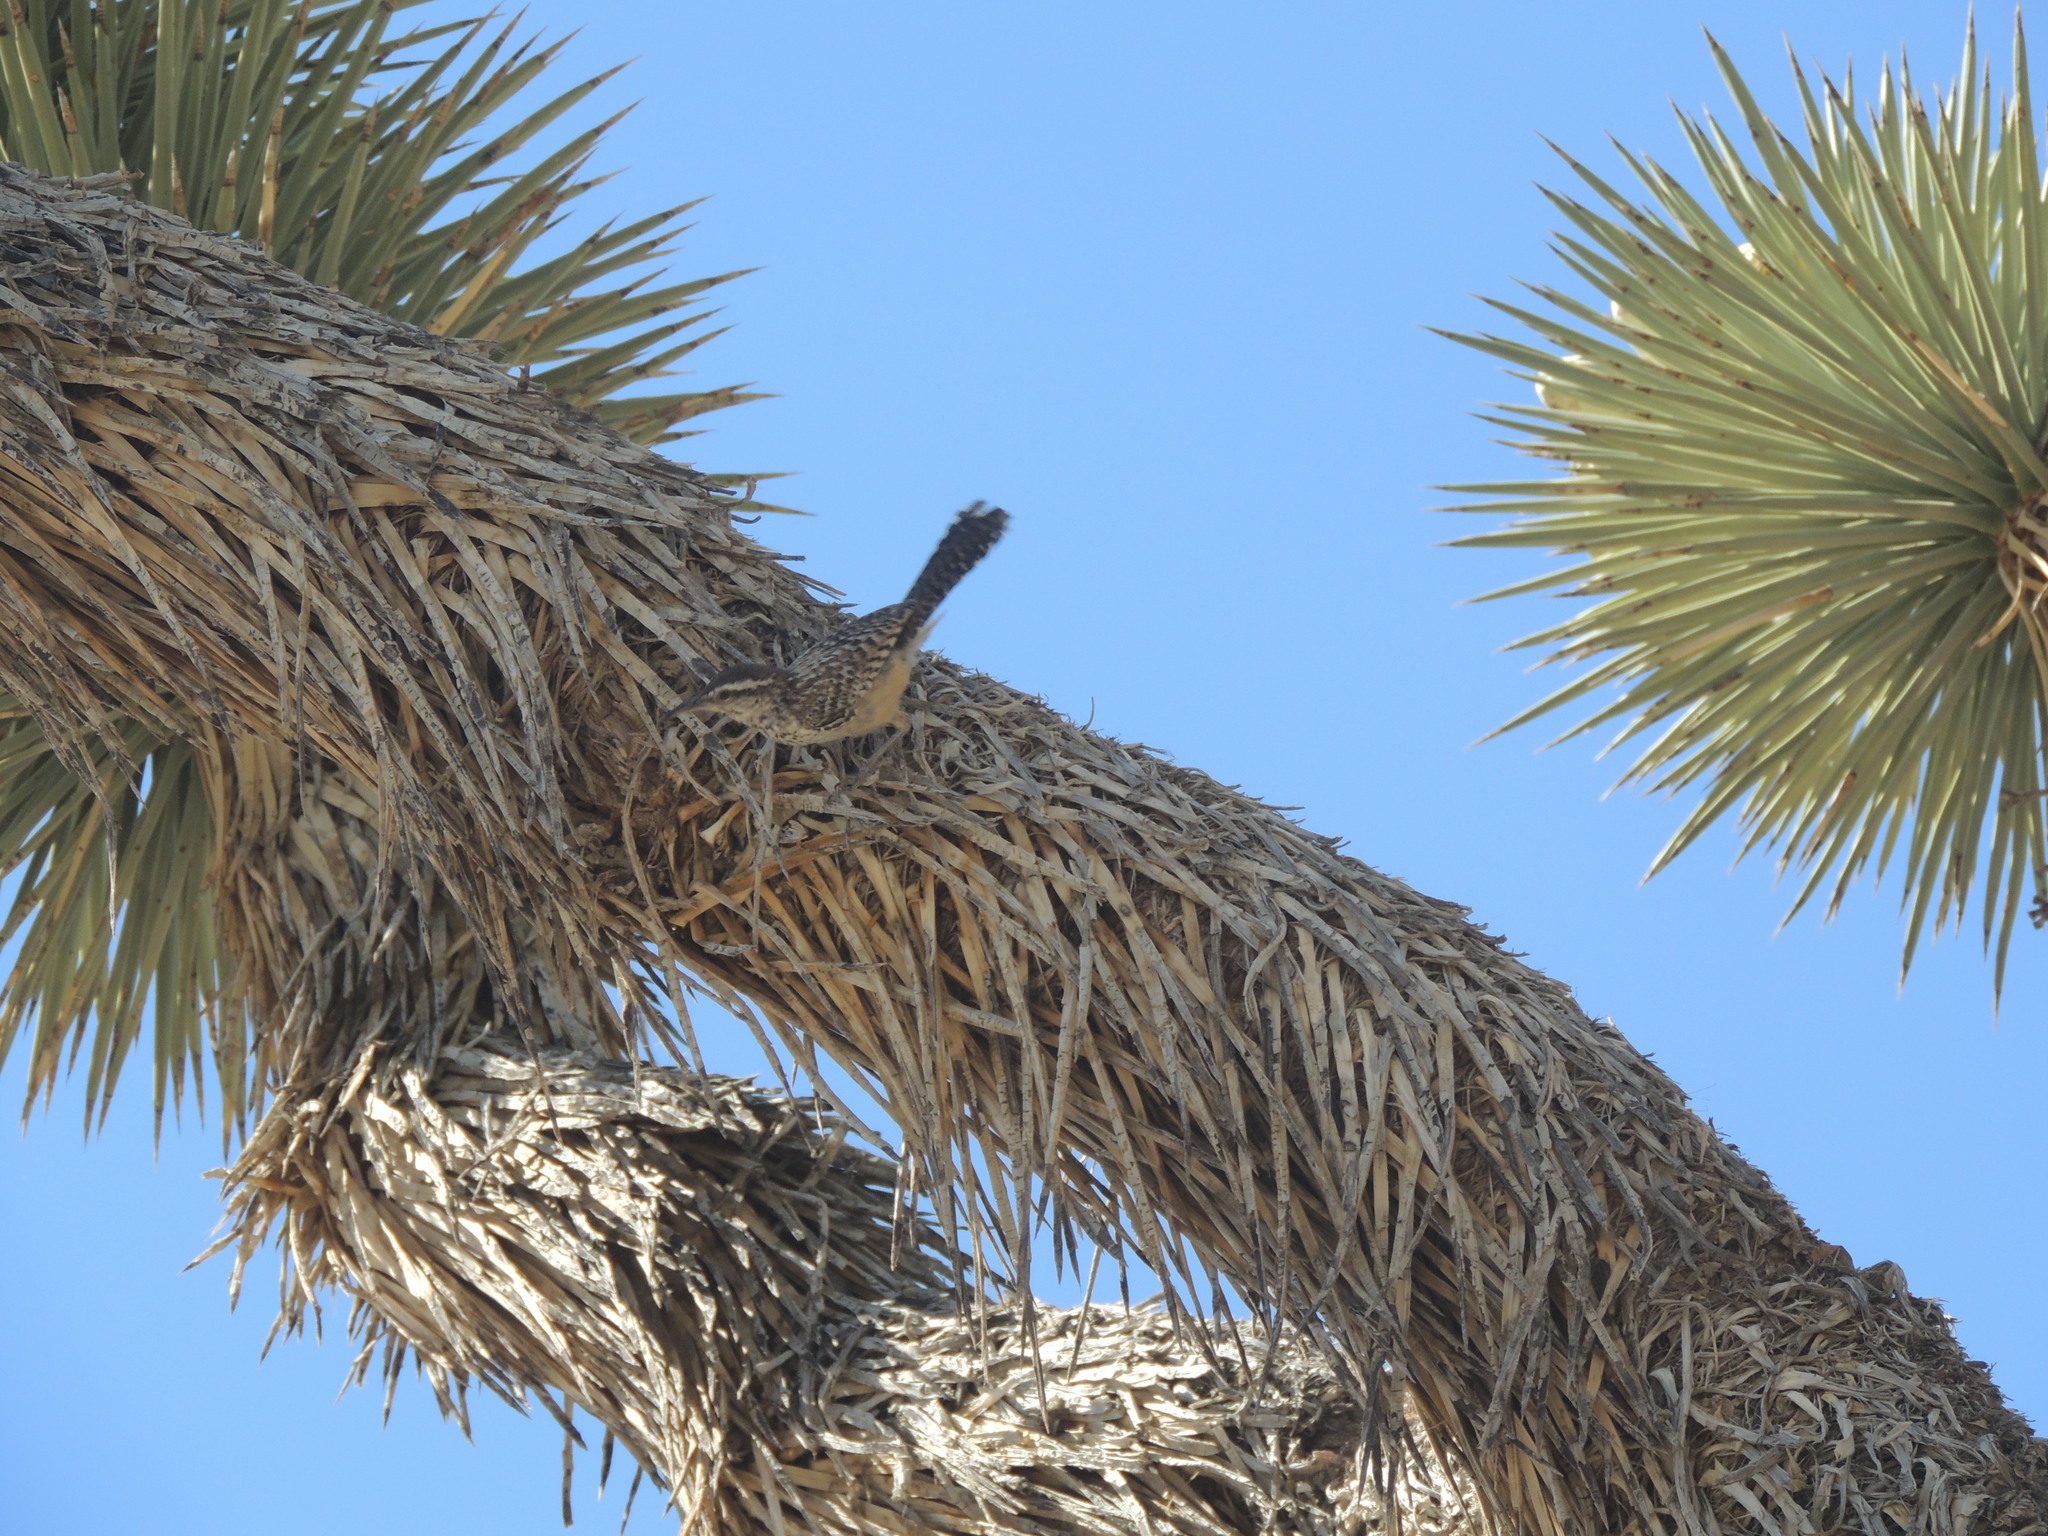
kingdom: Animalia
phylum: Chordata
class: Aves
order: Passeriformes
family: Troglodytidae
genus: Campylorhynchus
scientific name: Campylorhynchus brunneicapillus
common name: Cactus wren
